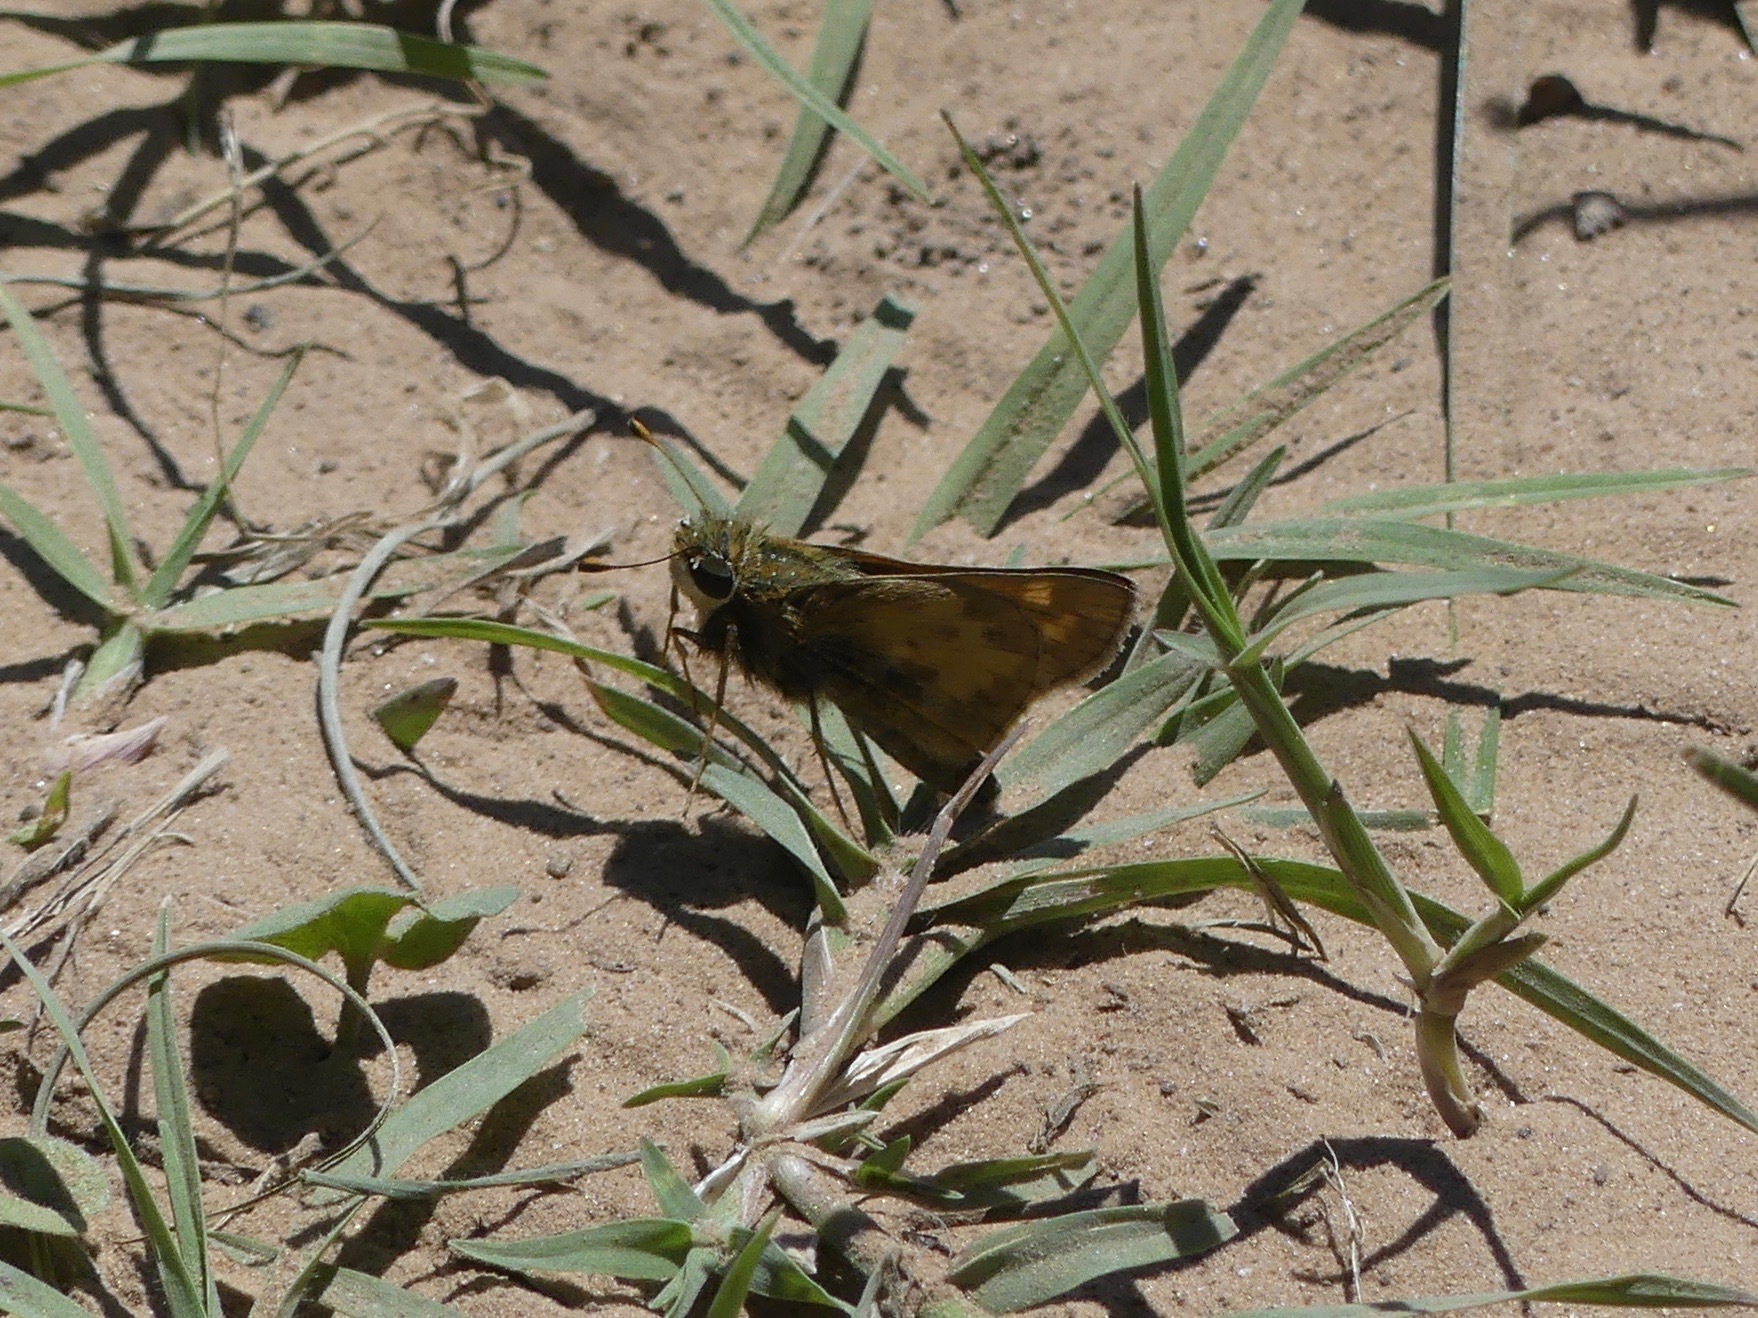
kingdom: Animalia
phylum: Arthropoda
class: Insecta
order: Lepidoptera
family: Hesperiidae
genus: Atalopedes
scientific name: Atalopedes
